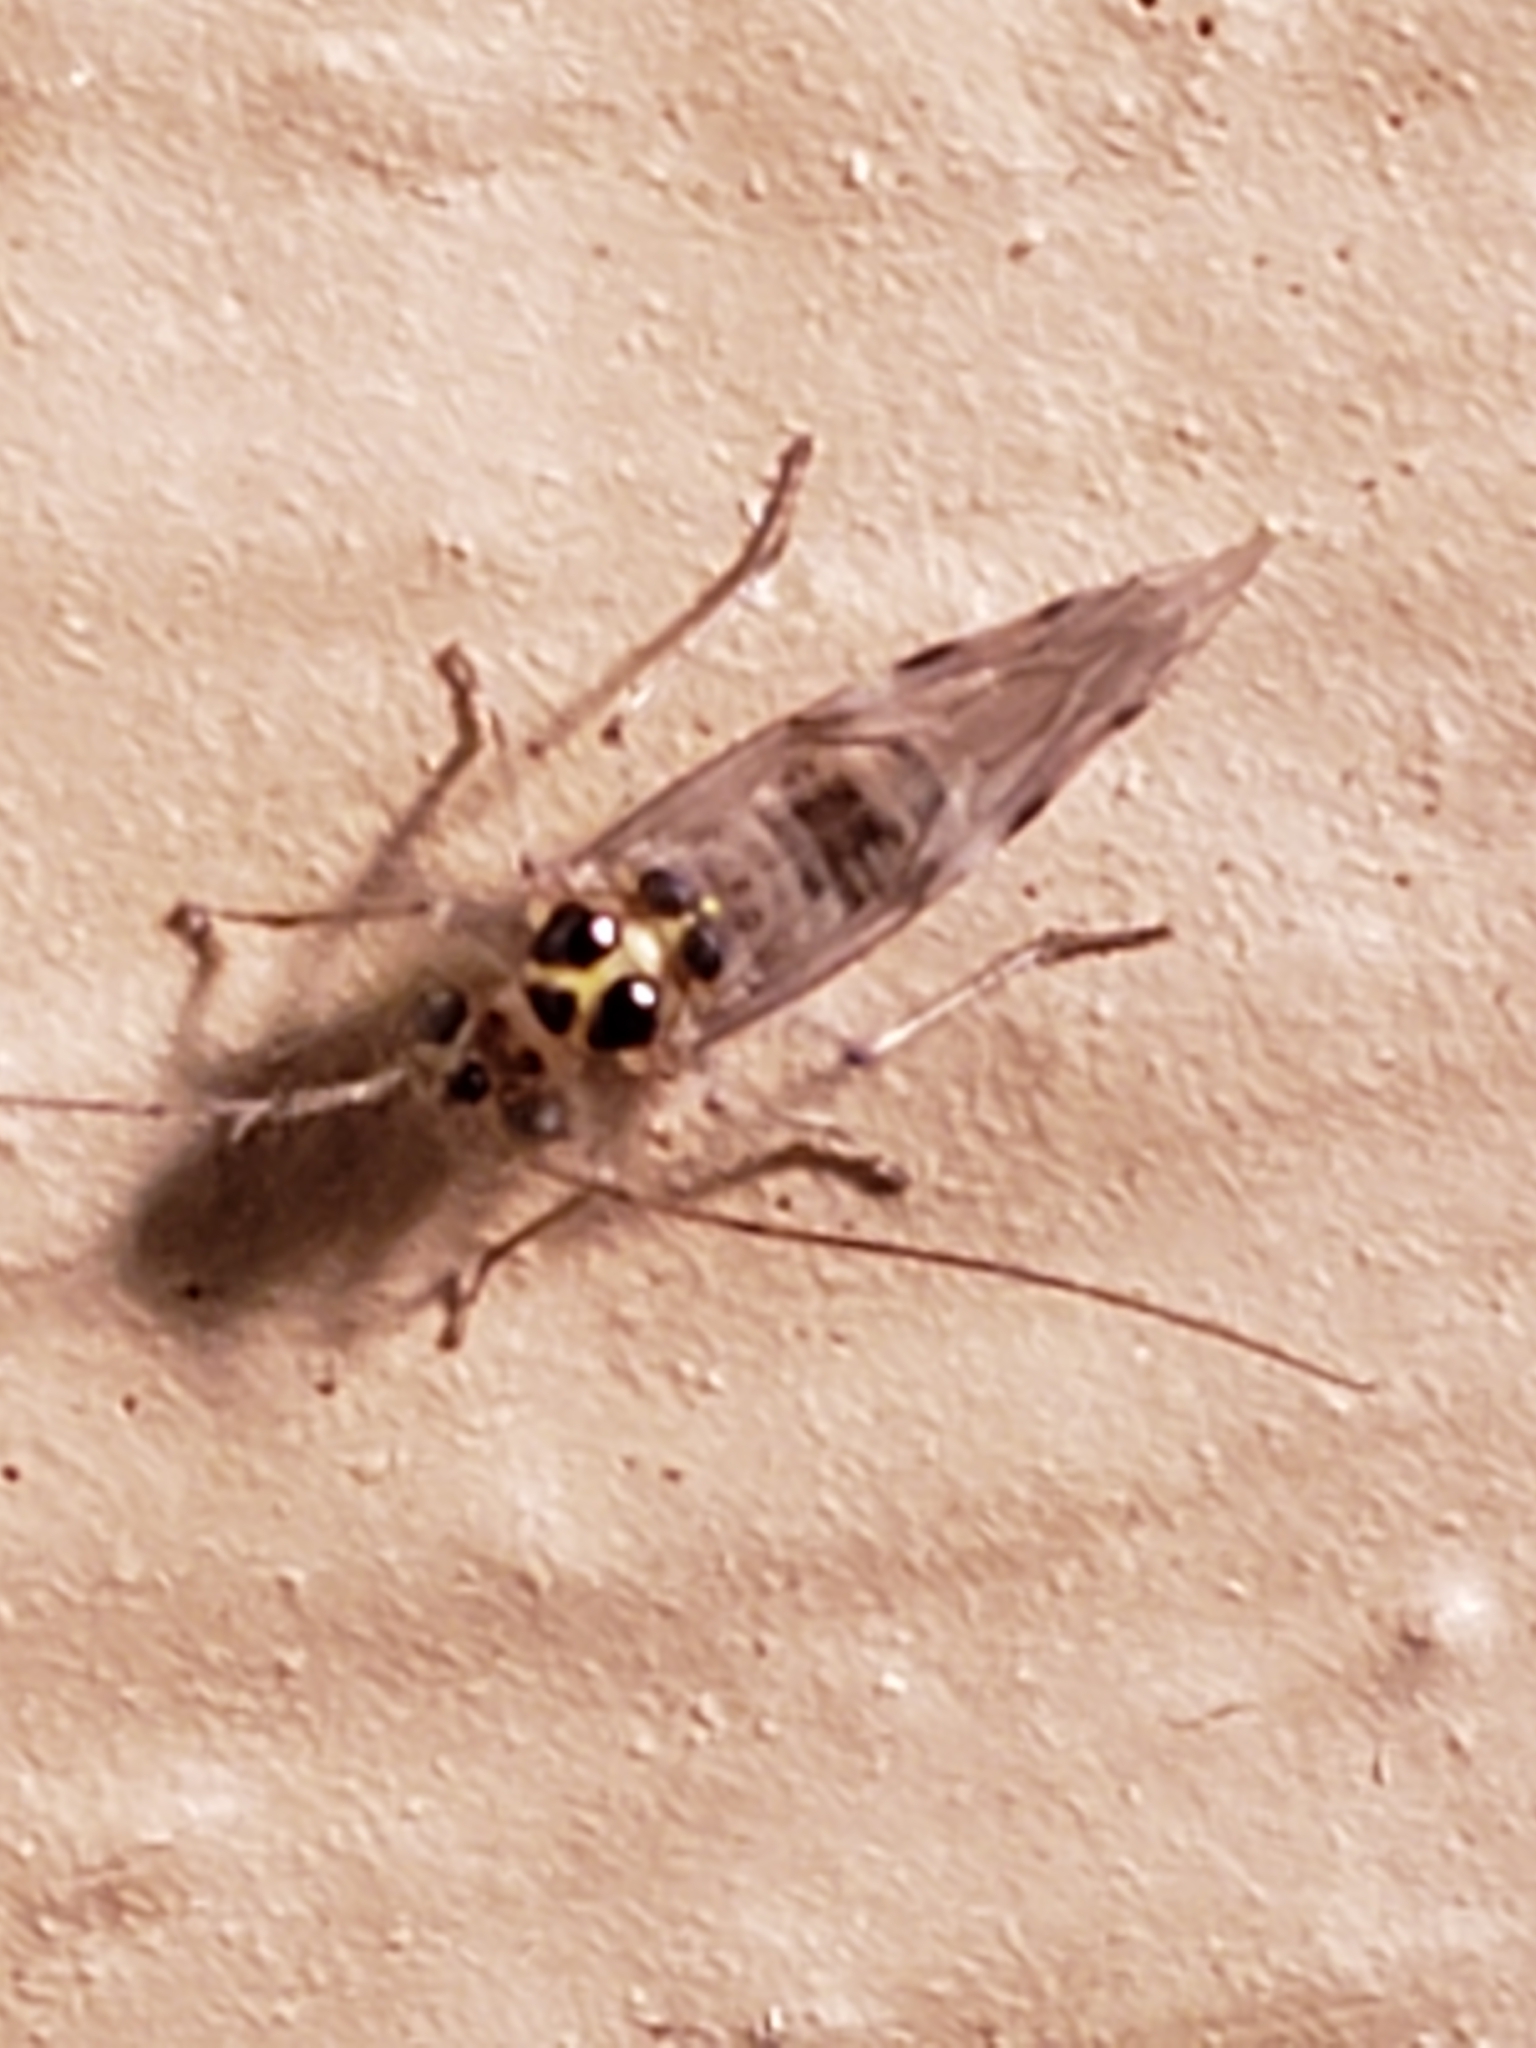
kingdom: Animalia
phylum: Arthropoda
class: Insecta
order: Psocodea
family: Dasydemellidae
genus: Teliapsocus
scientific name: Teliapsocus conterminus
